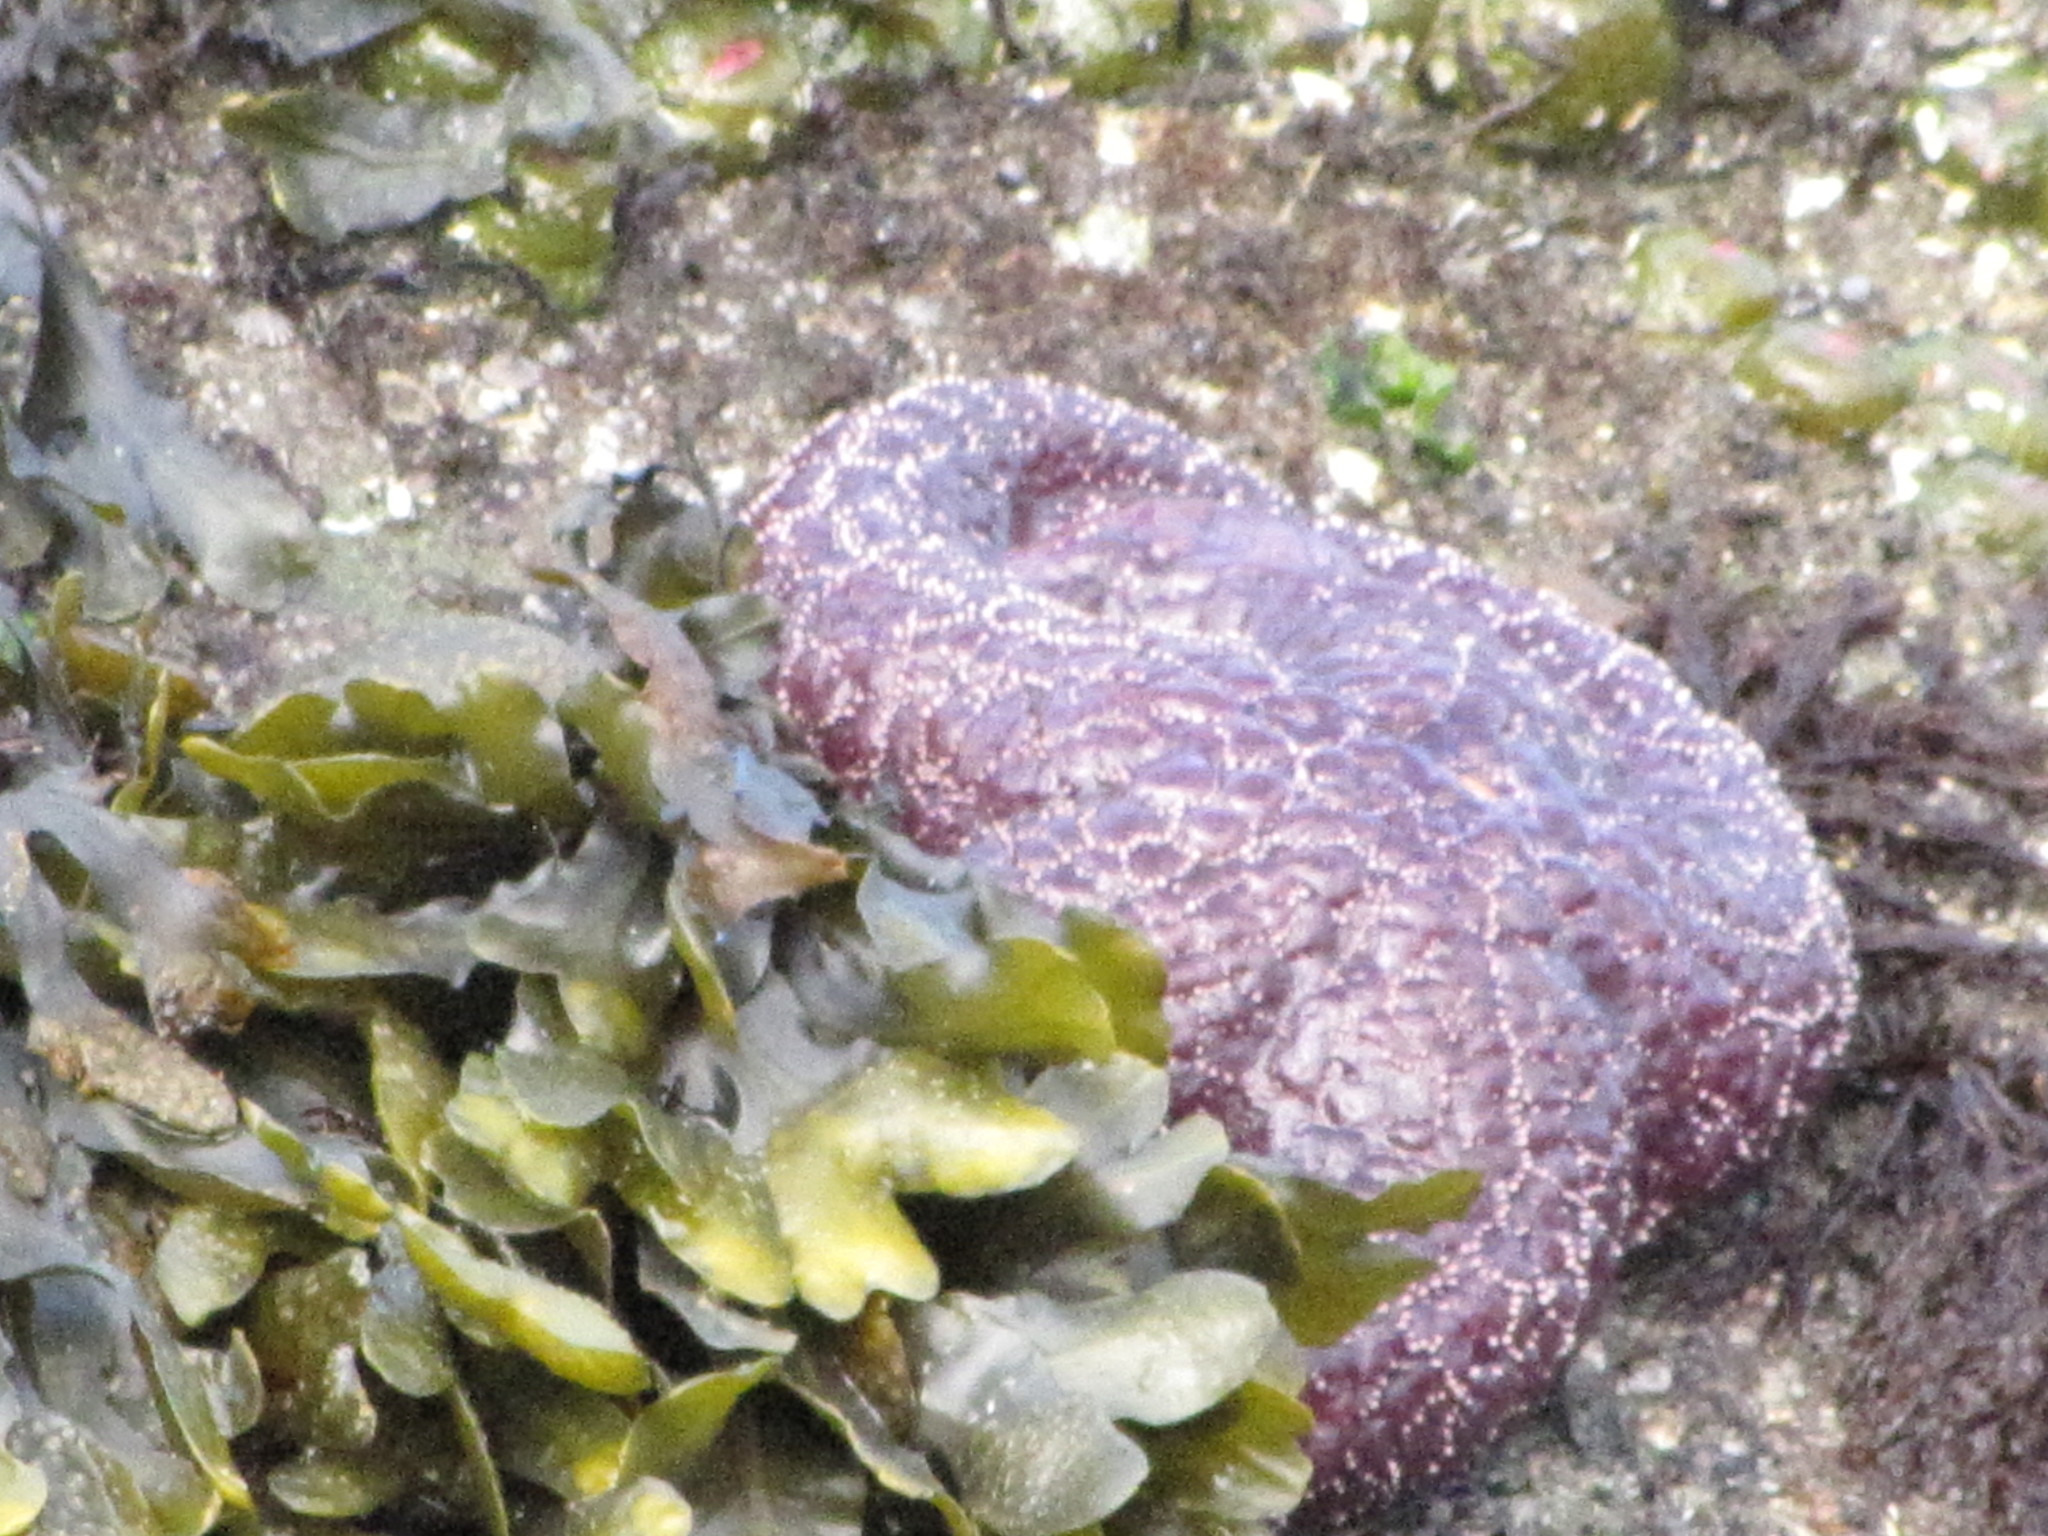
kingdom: Animalia
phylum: Echinodermata
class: Asteroidea
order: Forcipulatida
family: Asteriidae
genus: Pisaster
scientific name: Pisaster ochraceus
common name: Ochre stars
